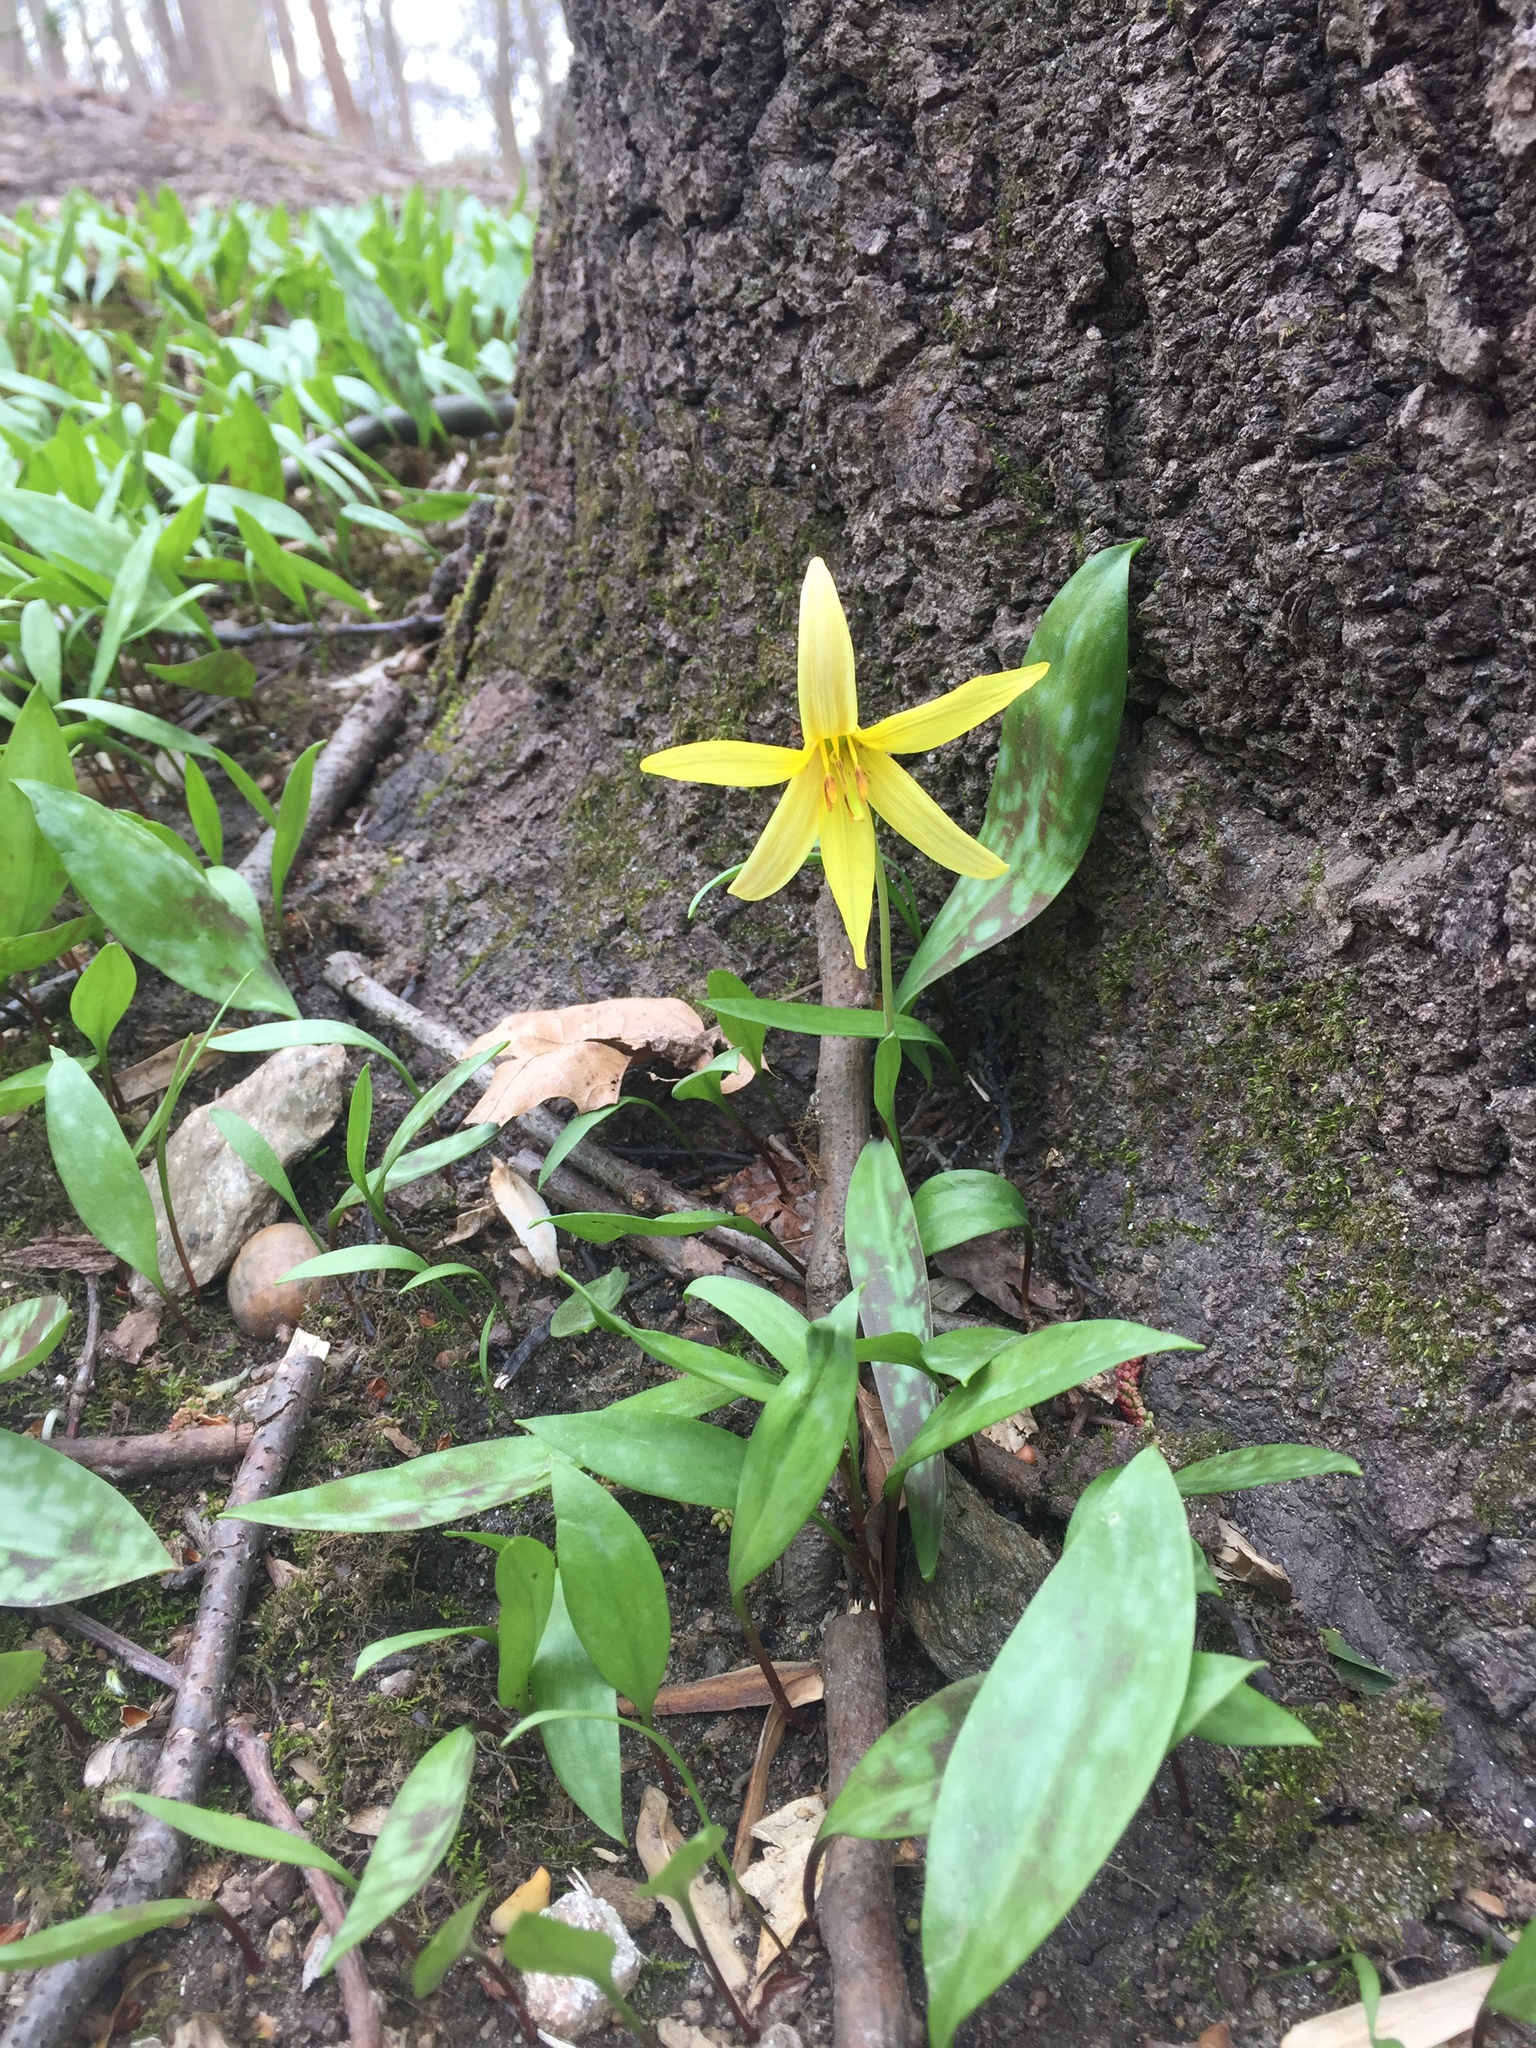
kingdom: Plantae
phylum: Tracheophyta
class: Liliopsida
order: Liliales
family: Liliaceae
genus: Erythronium
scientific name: Erythronium americanum
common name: Yellow adder's-tongue
